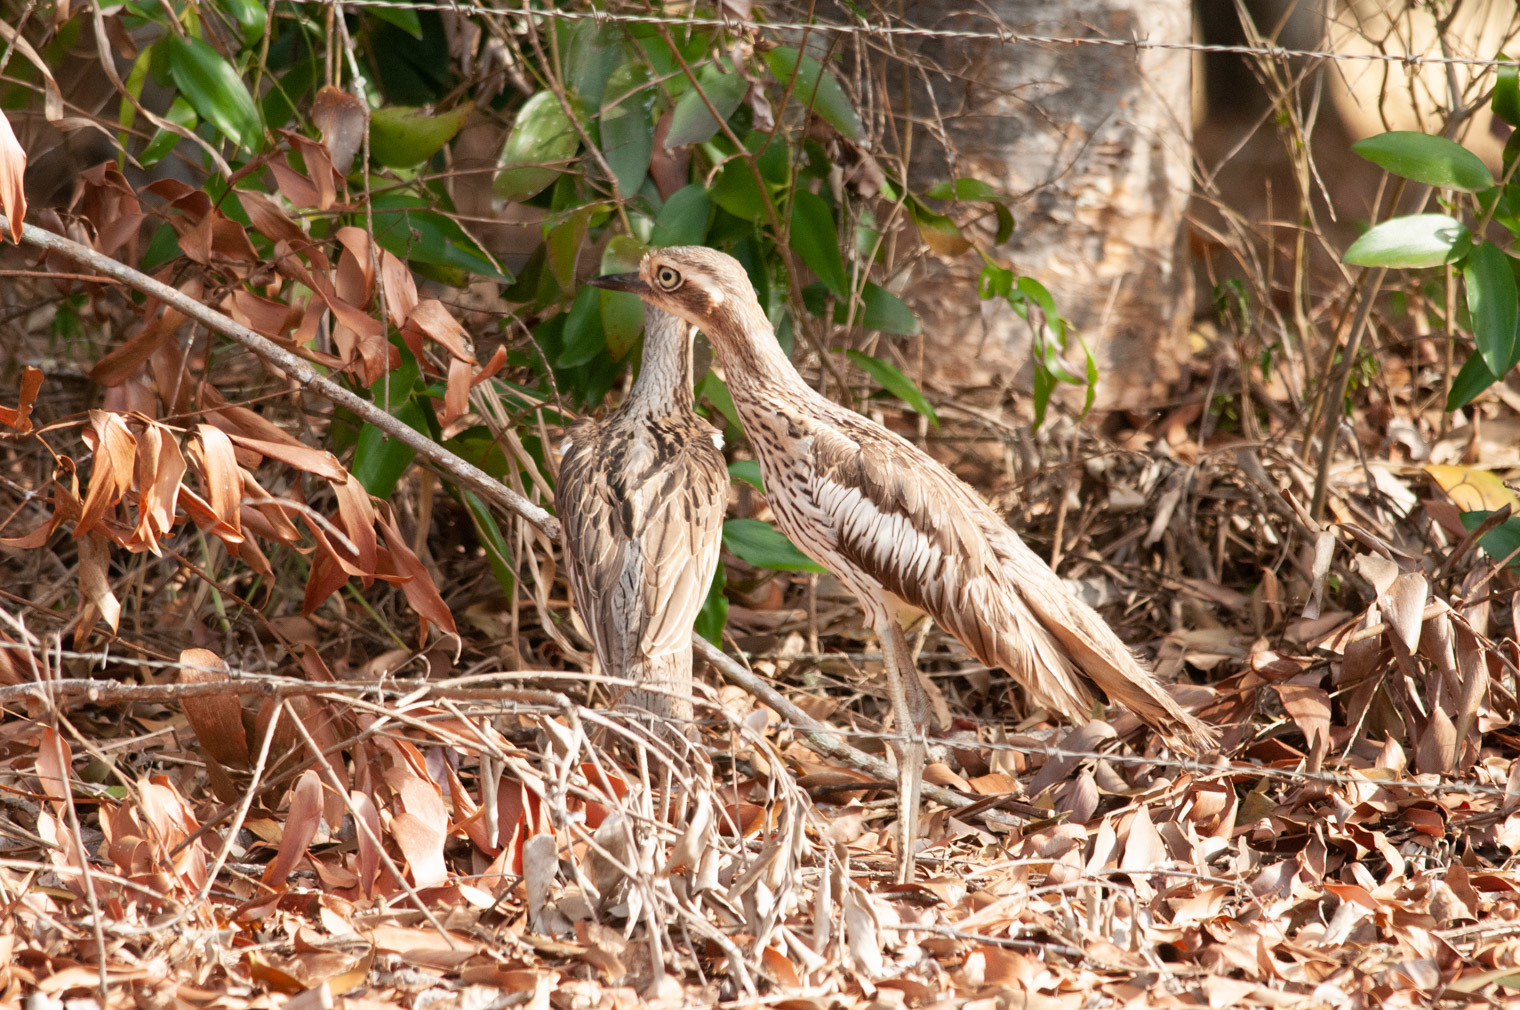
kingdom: Animalia
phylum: Chordata
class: Aves
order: Charadriiformes
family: Burhinidae
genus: Burhinus
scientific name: Burhinus grallarius
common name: Bush stone-curlew
